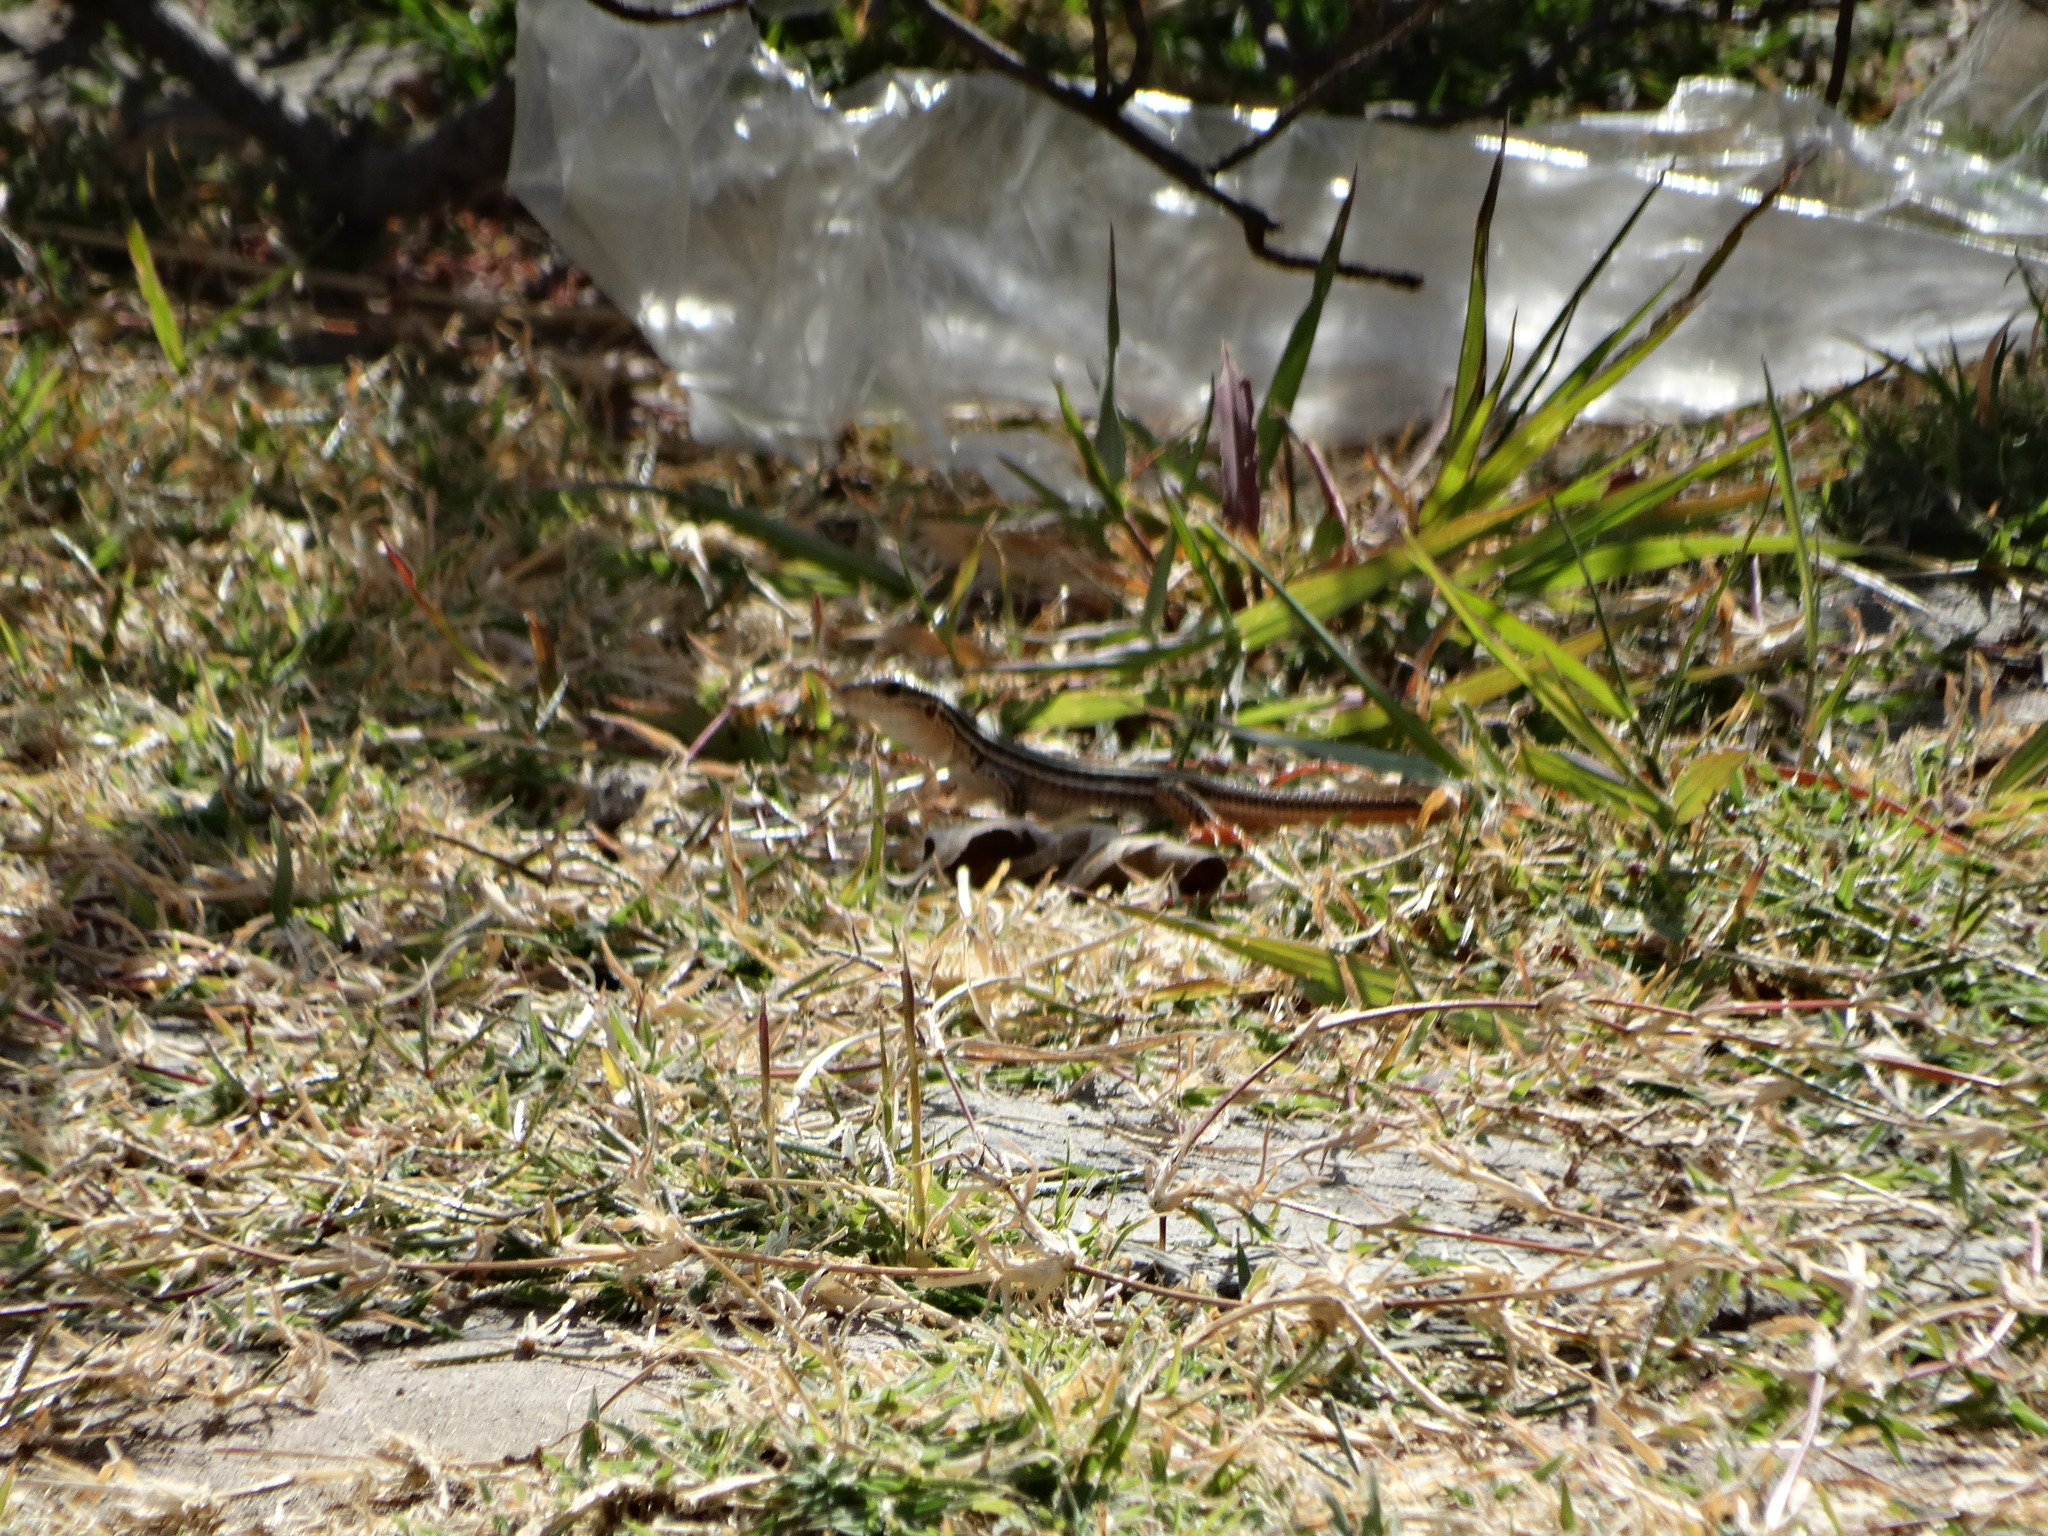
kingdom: Animalia
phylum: Chordata
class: Squamata
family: Teiidae
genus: Aspidoscelis
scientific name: Aspidoscelis costatus
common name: Western mexico whiptail
